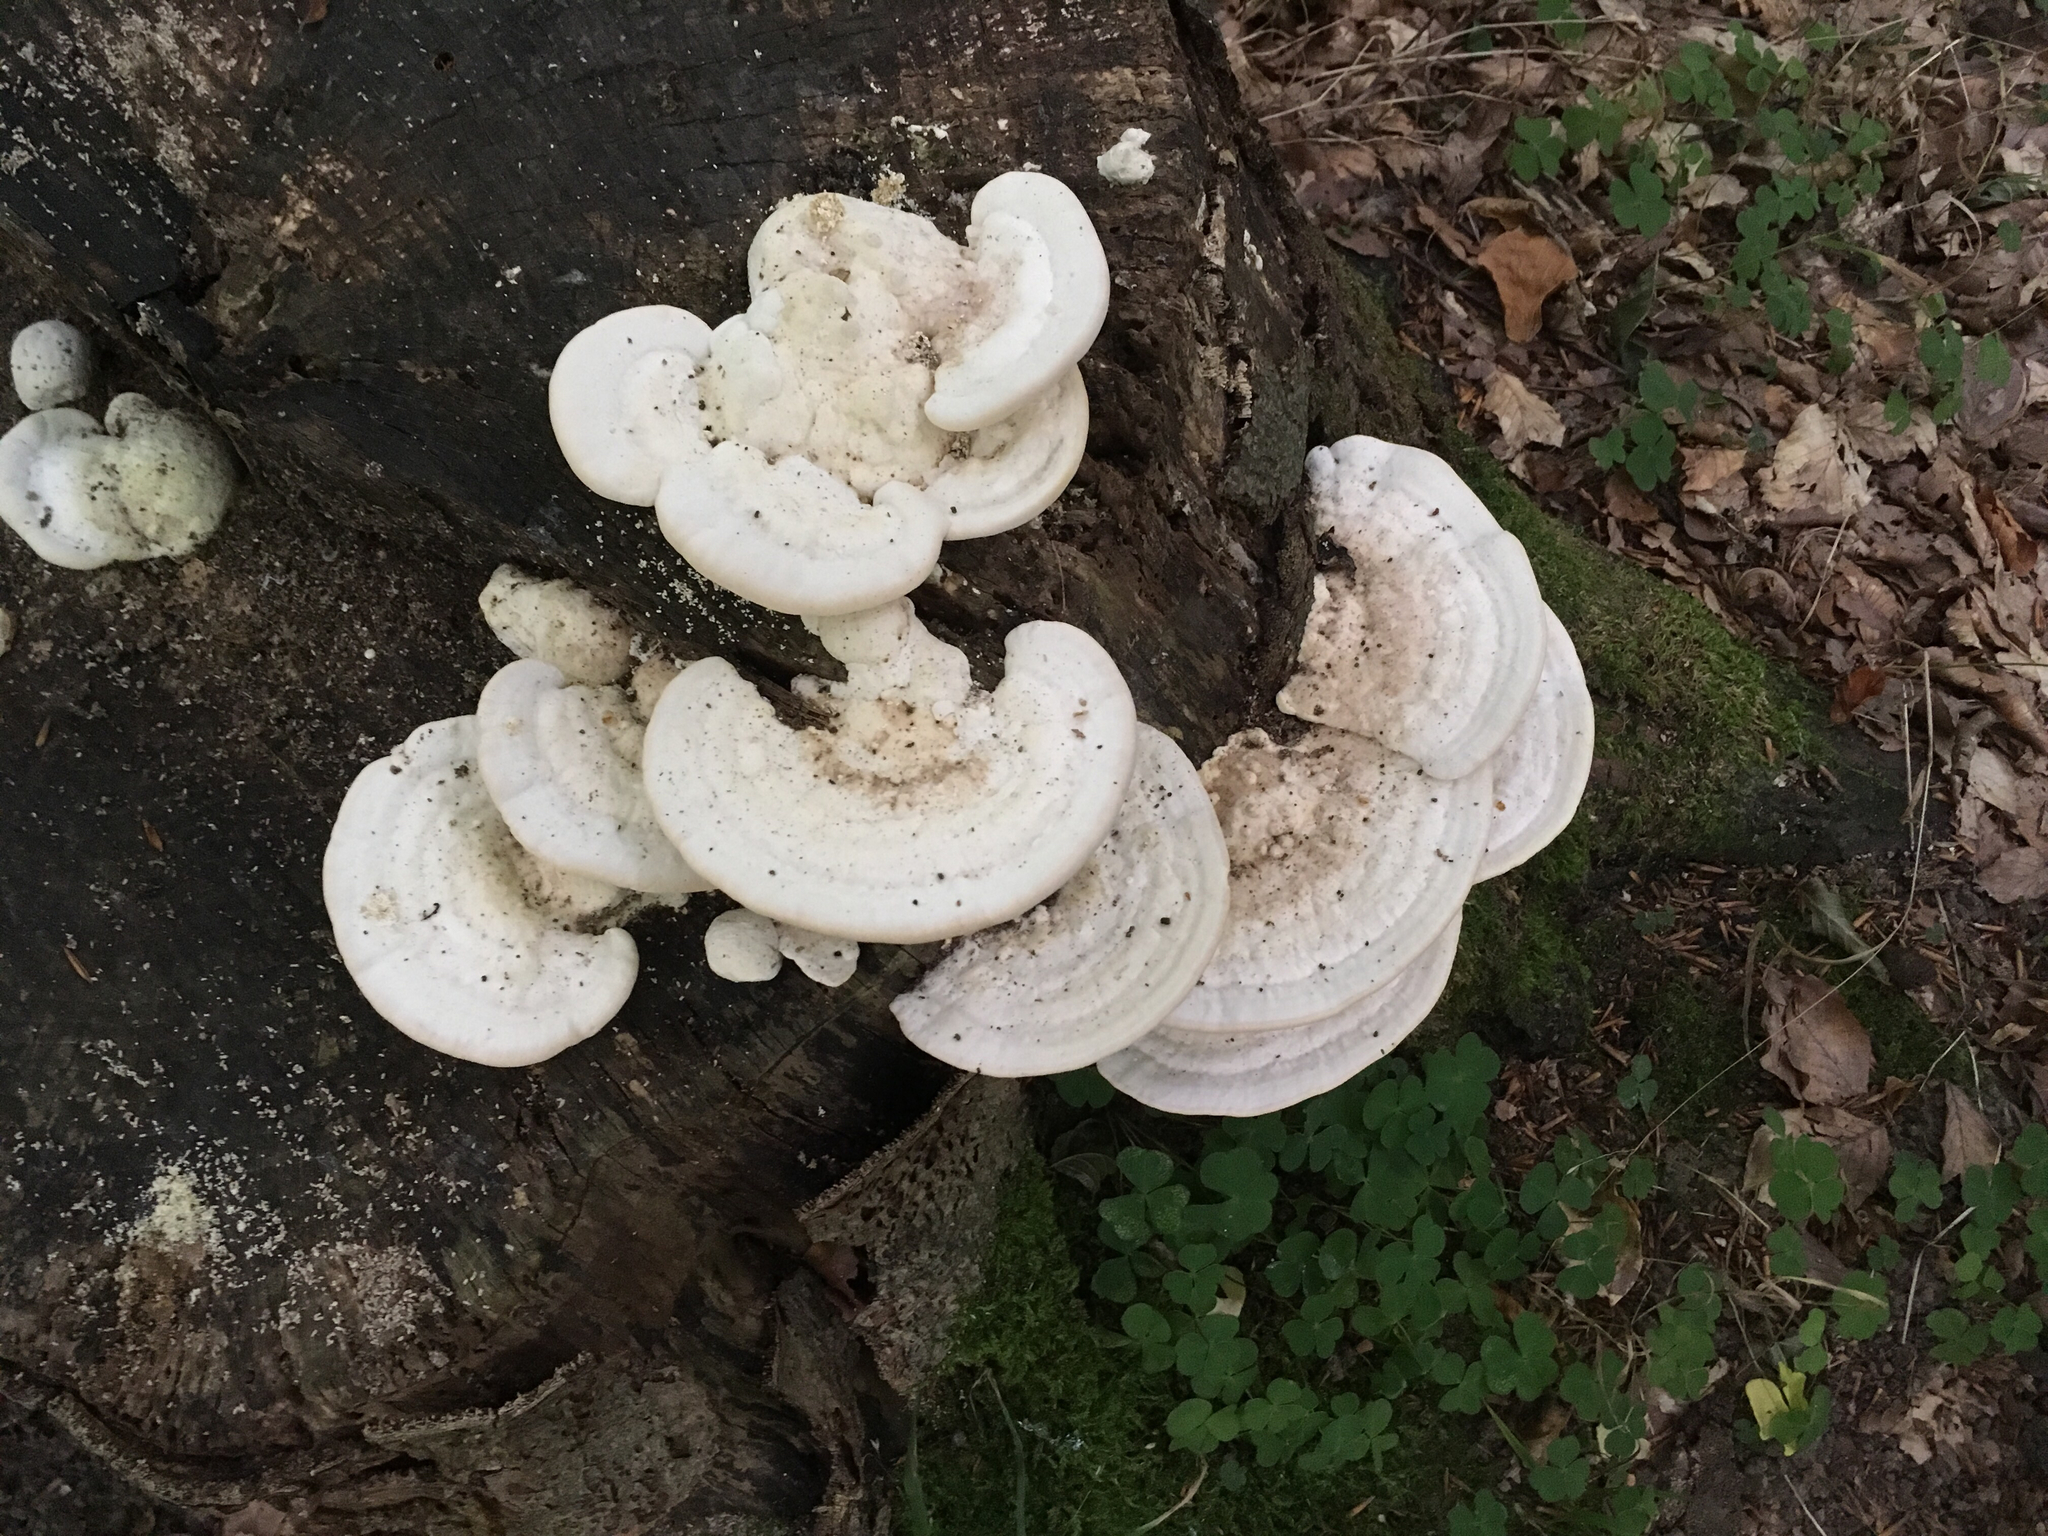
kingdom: Fungi
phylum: Basidiomycota
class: Agaricomycetes
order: Polyporales
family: Polyporaceae
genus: Trametes
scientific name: Trametes gibbosa
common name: Lumpy bracket
